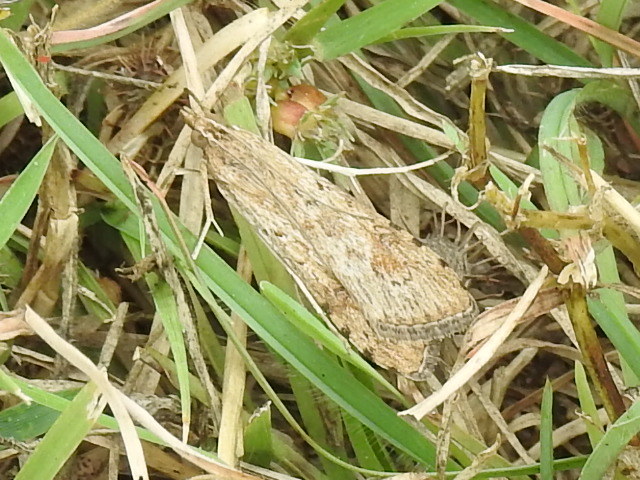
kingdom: Animalia
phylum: Arthropoda
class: Insecta
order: Lepidoptera
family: Crambidae
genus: Nomophila
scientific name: Nomophila nearctica
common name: American rush veneer
